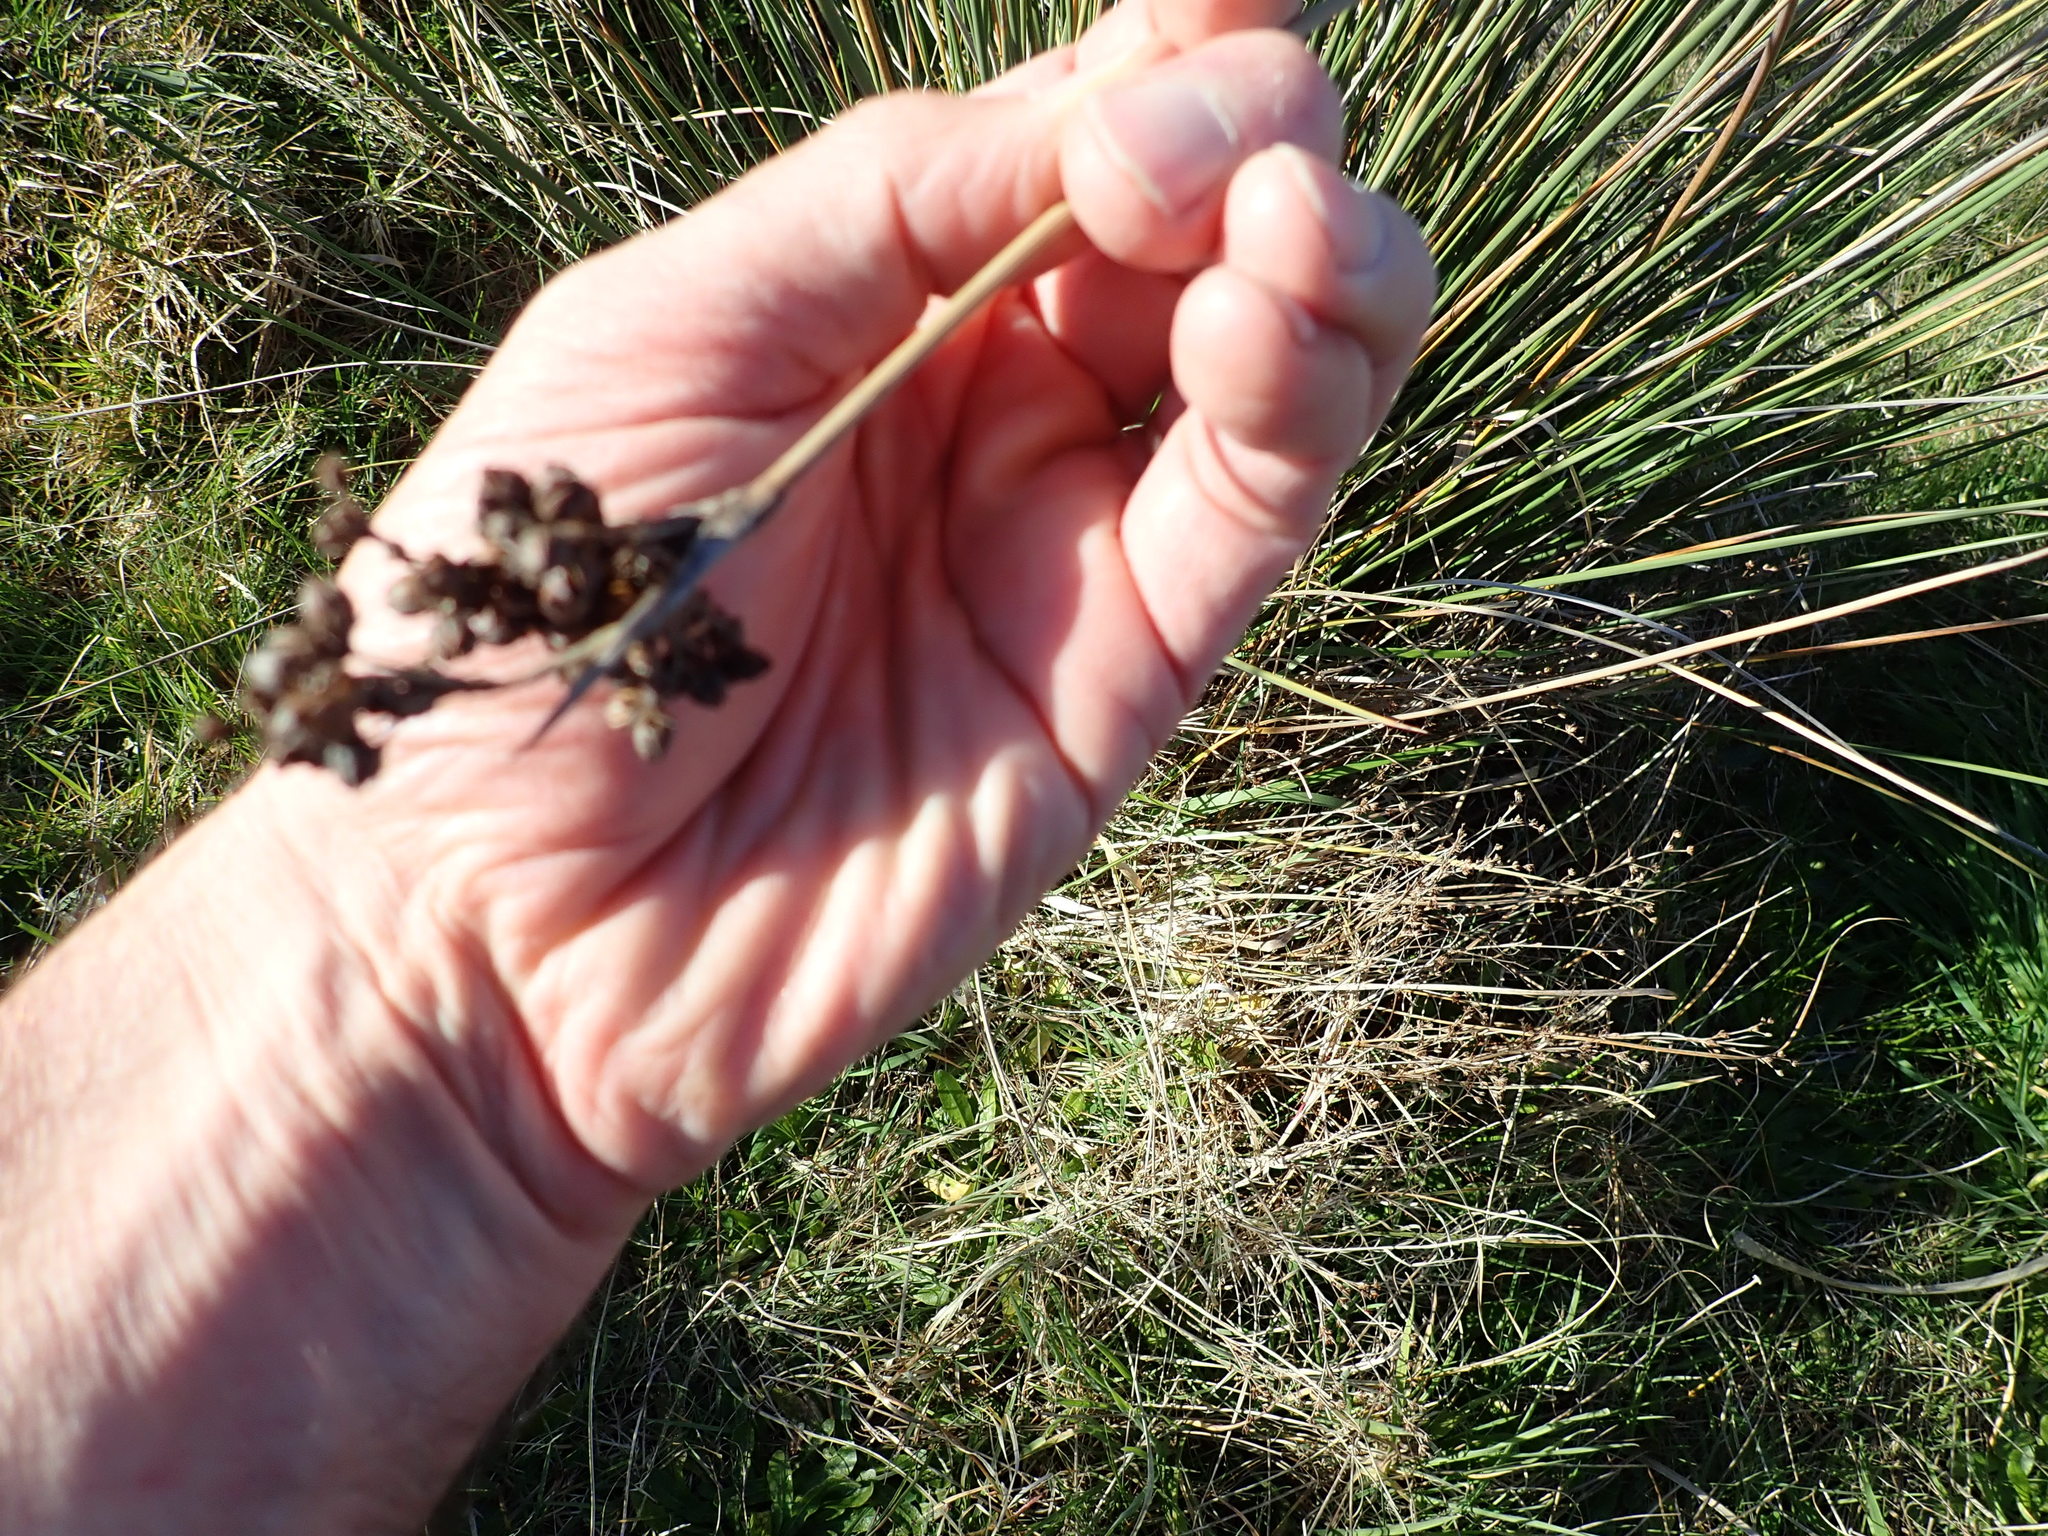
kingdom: Plantae
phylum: Tracheophyta
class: Liliopsida
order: Poales
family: Juncaceae
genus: Juncus
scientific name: Juncus acutus
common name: Sharp rush
